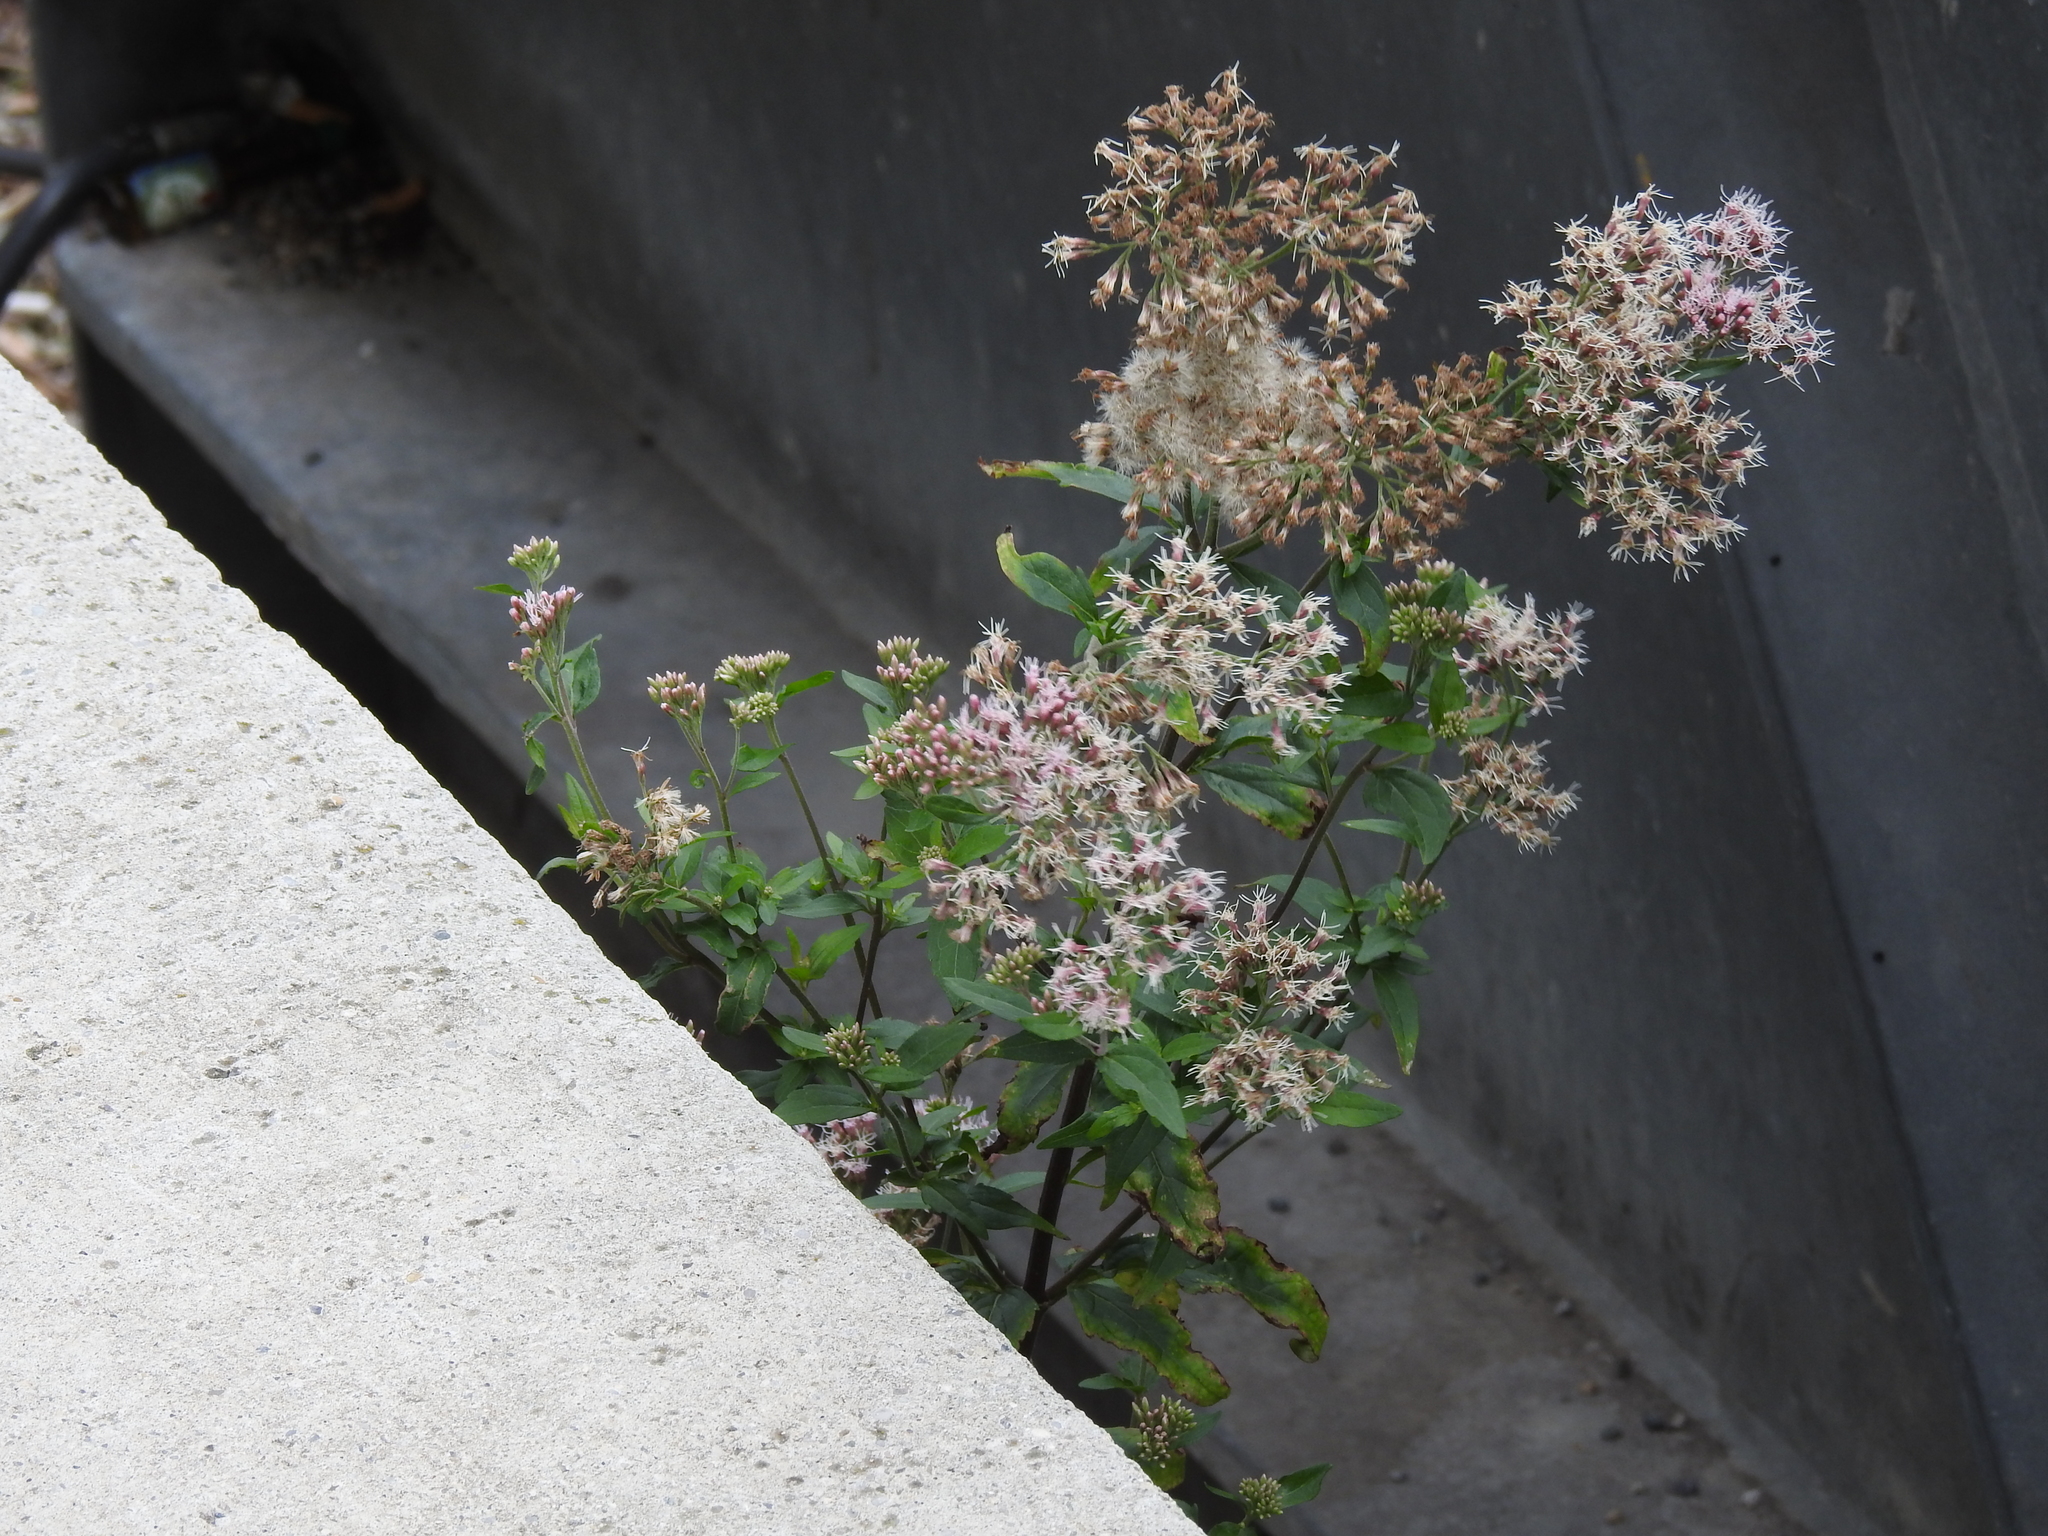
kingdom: Plantae
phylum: Tracheophyta
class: Magnoliopsida
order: Asterales
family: Asteraceae
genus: Eupatorium
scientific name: Eupatorium cannabinum
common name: Hemp-agrimony
